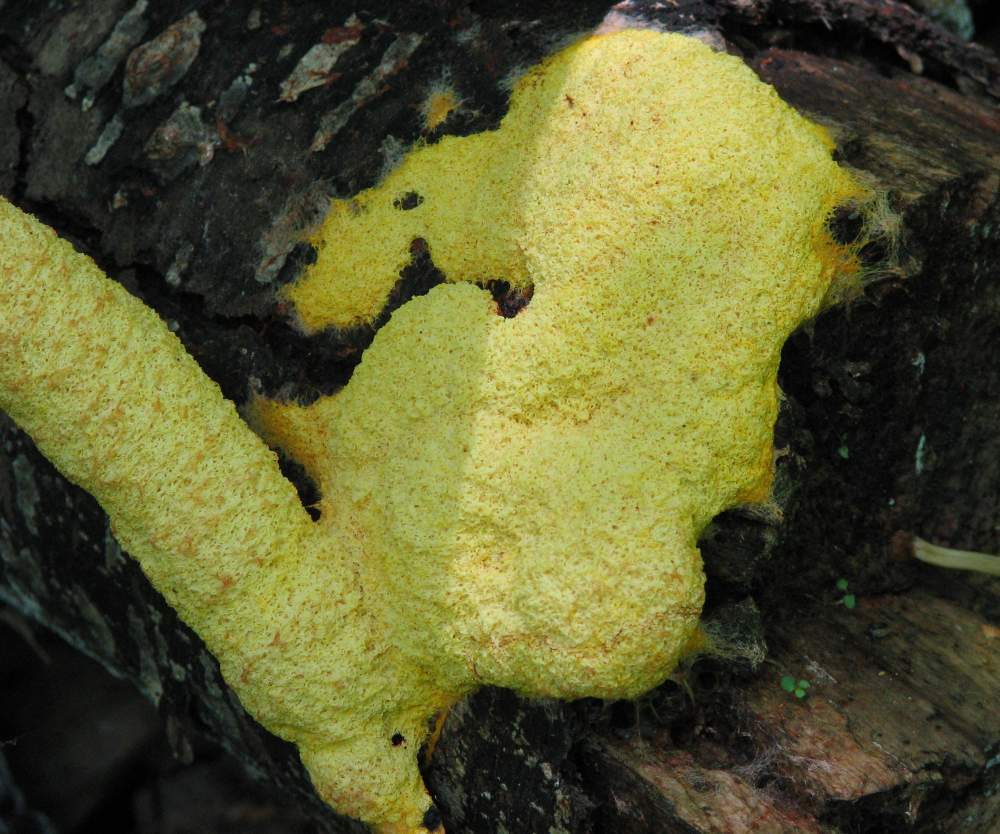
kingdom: Protozoa
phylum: Mycetozoa
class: Myxomycetes
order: Physarales
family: Physaraceae
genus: Fuligo
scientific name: Fuligo septica
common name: Dog vomit slime mold
